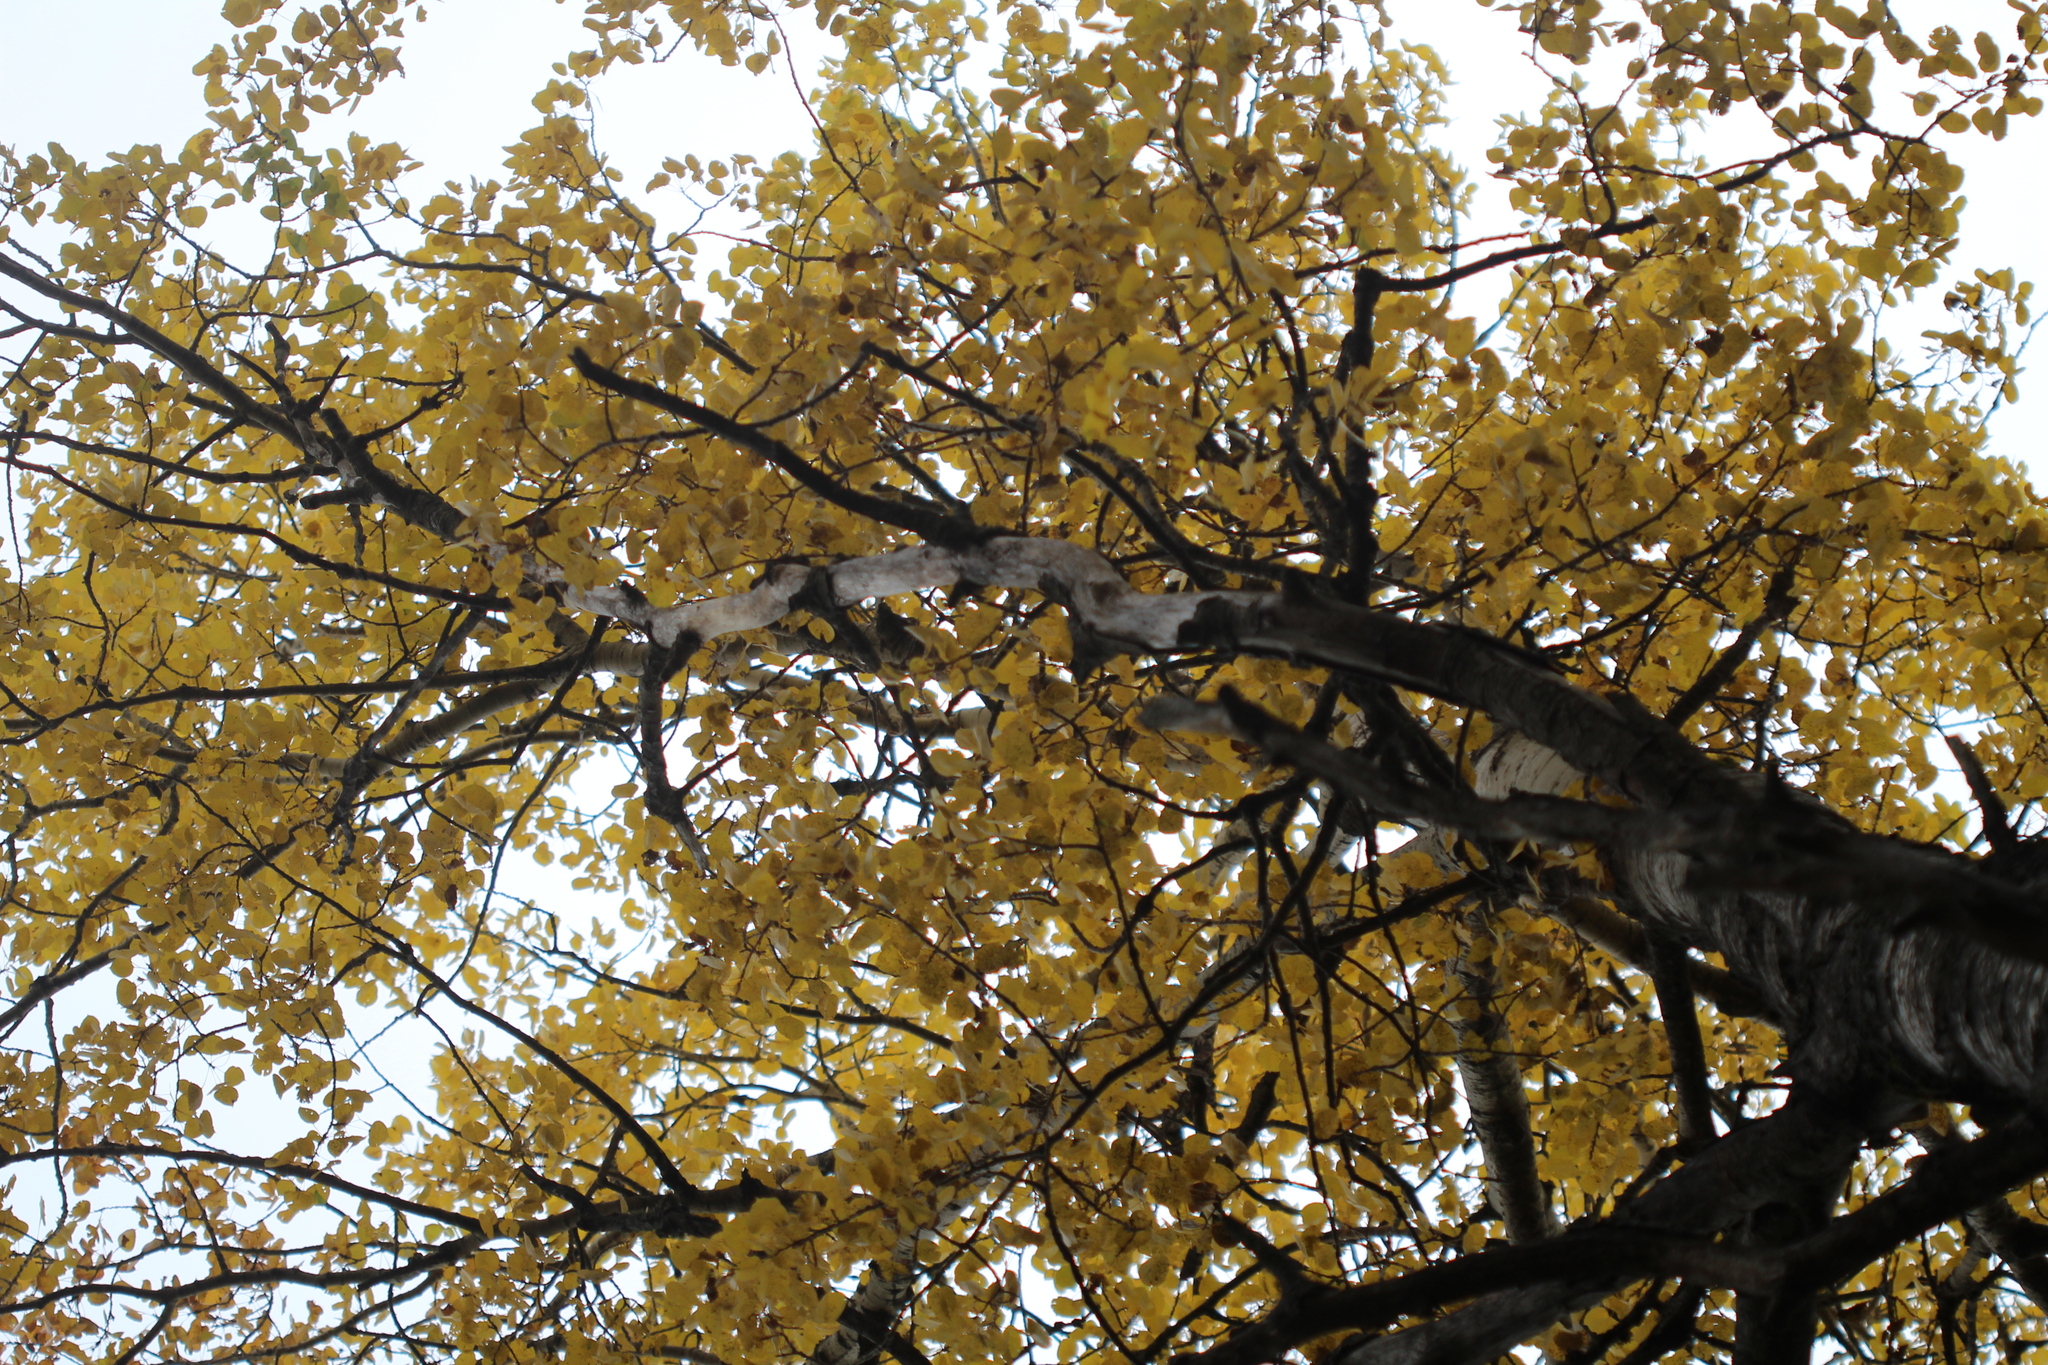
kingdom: Plantae
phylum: Tracheophyta
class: Magnoliopsida
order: Malpighiales
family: Salicaceae
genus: Populus
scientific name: Populus tremuloides
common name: Quaking aspen
